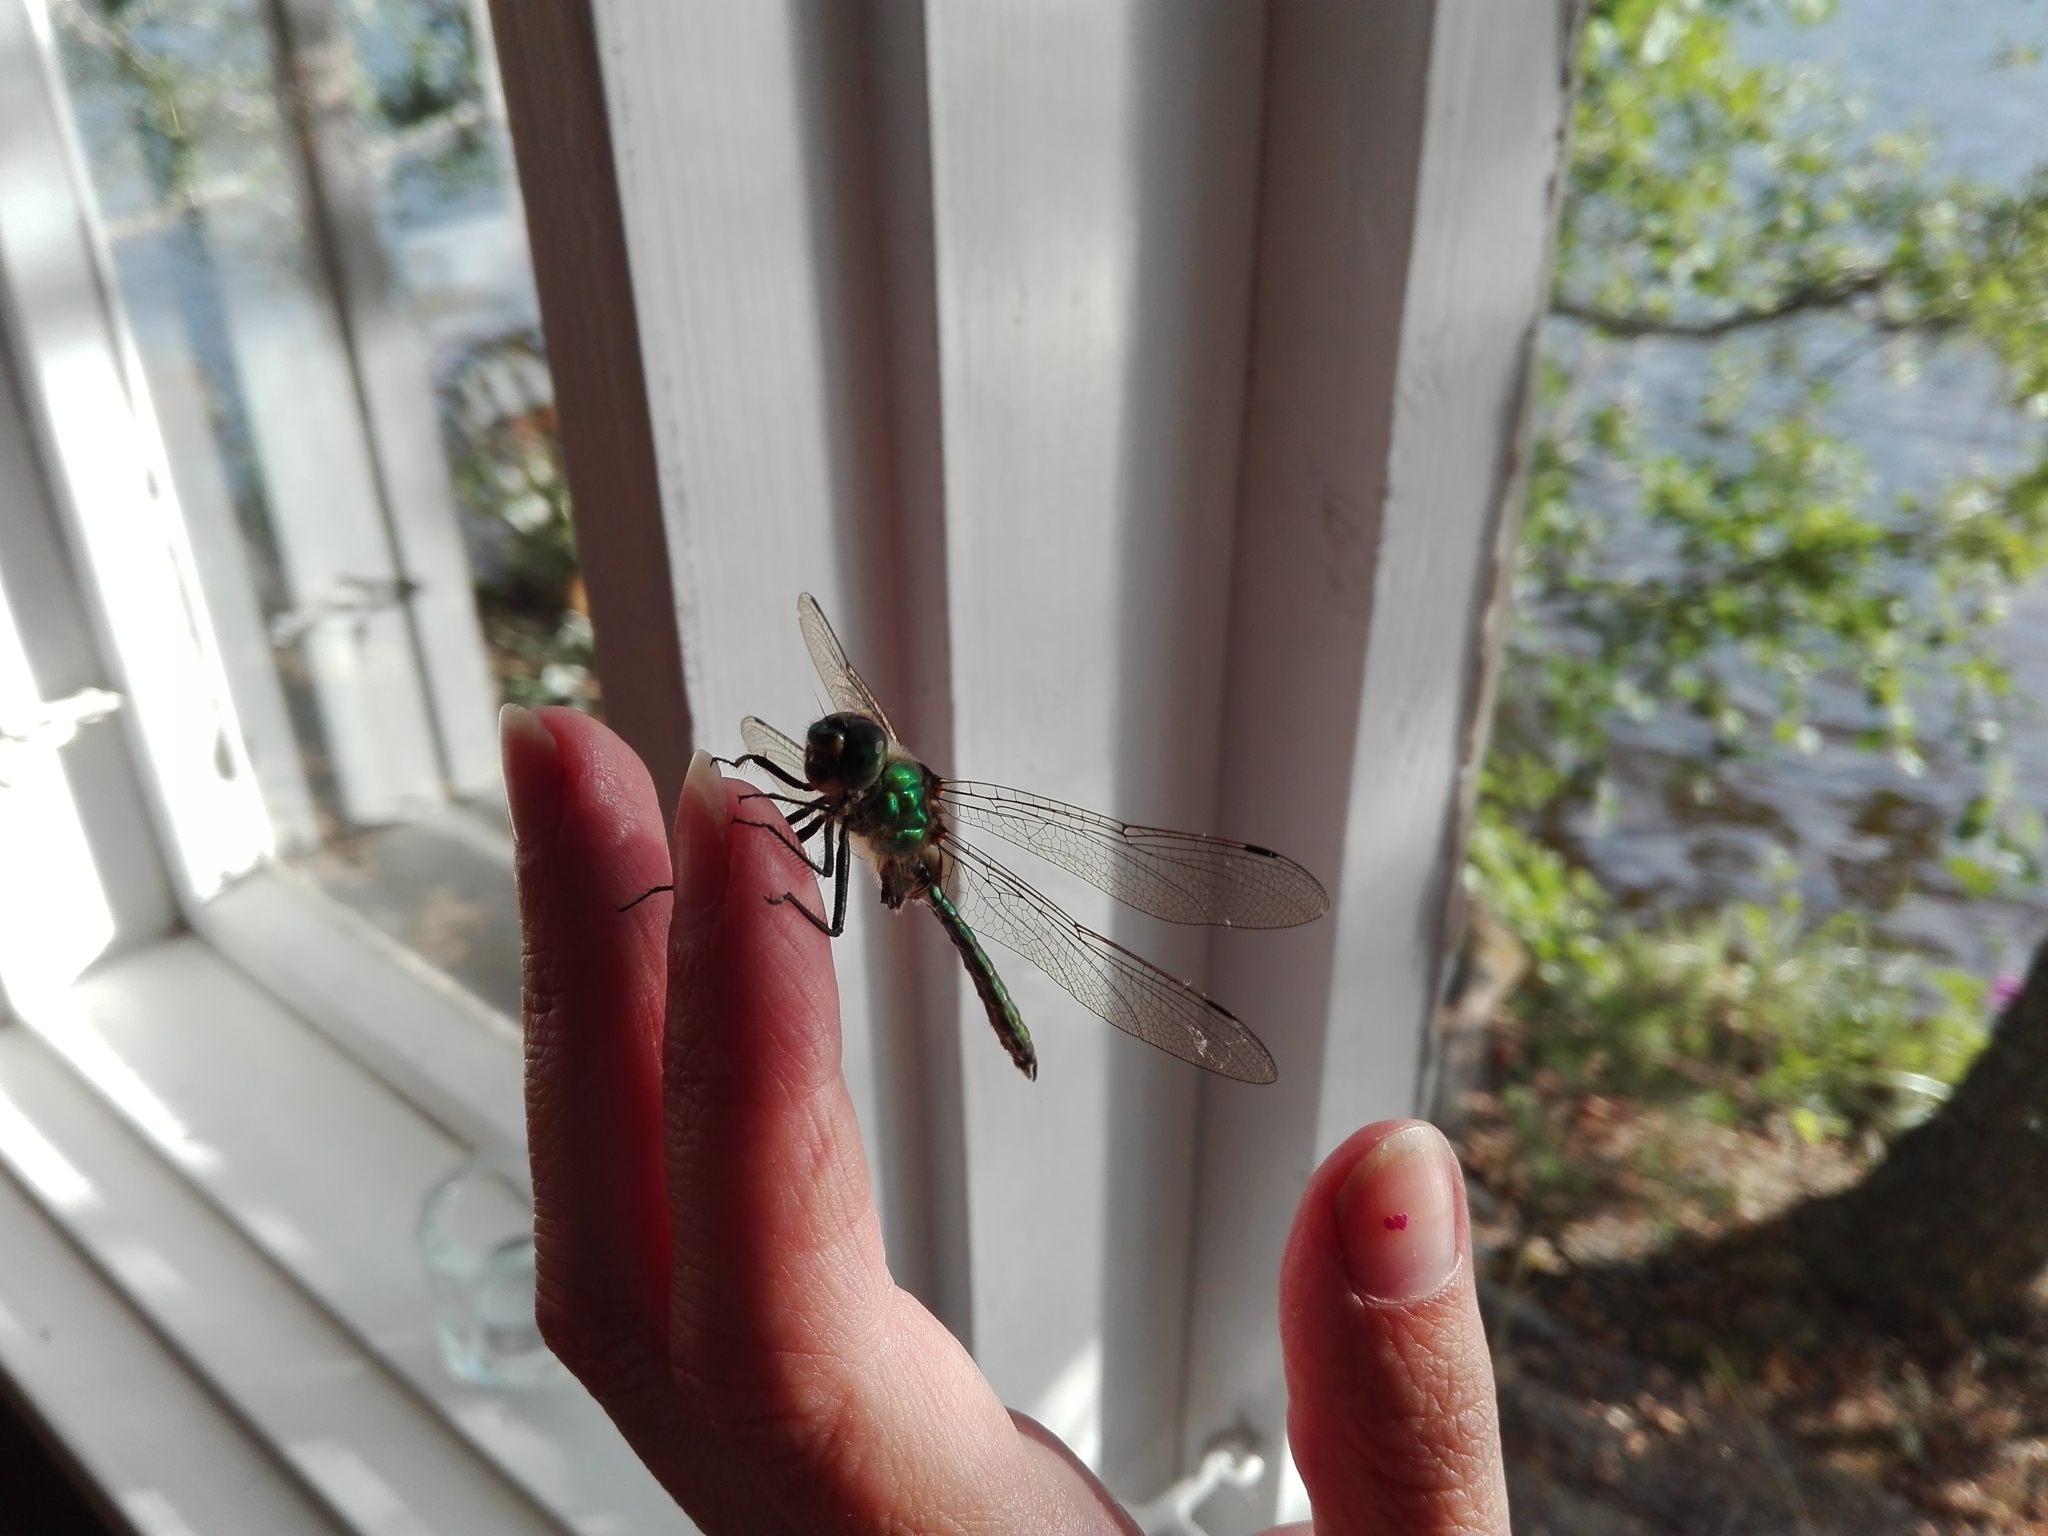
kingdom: Animalia
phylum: Arthropoda
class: Insecta
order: Odonata
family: Corduliidae
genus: Somatochlora
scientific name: Somatochlora metallica
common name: Brilliant emerald
